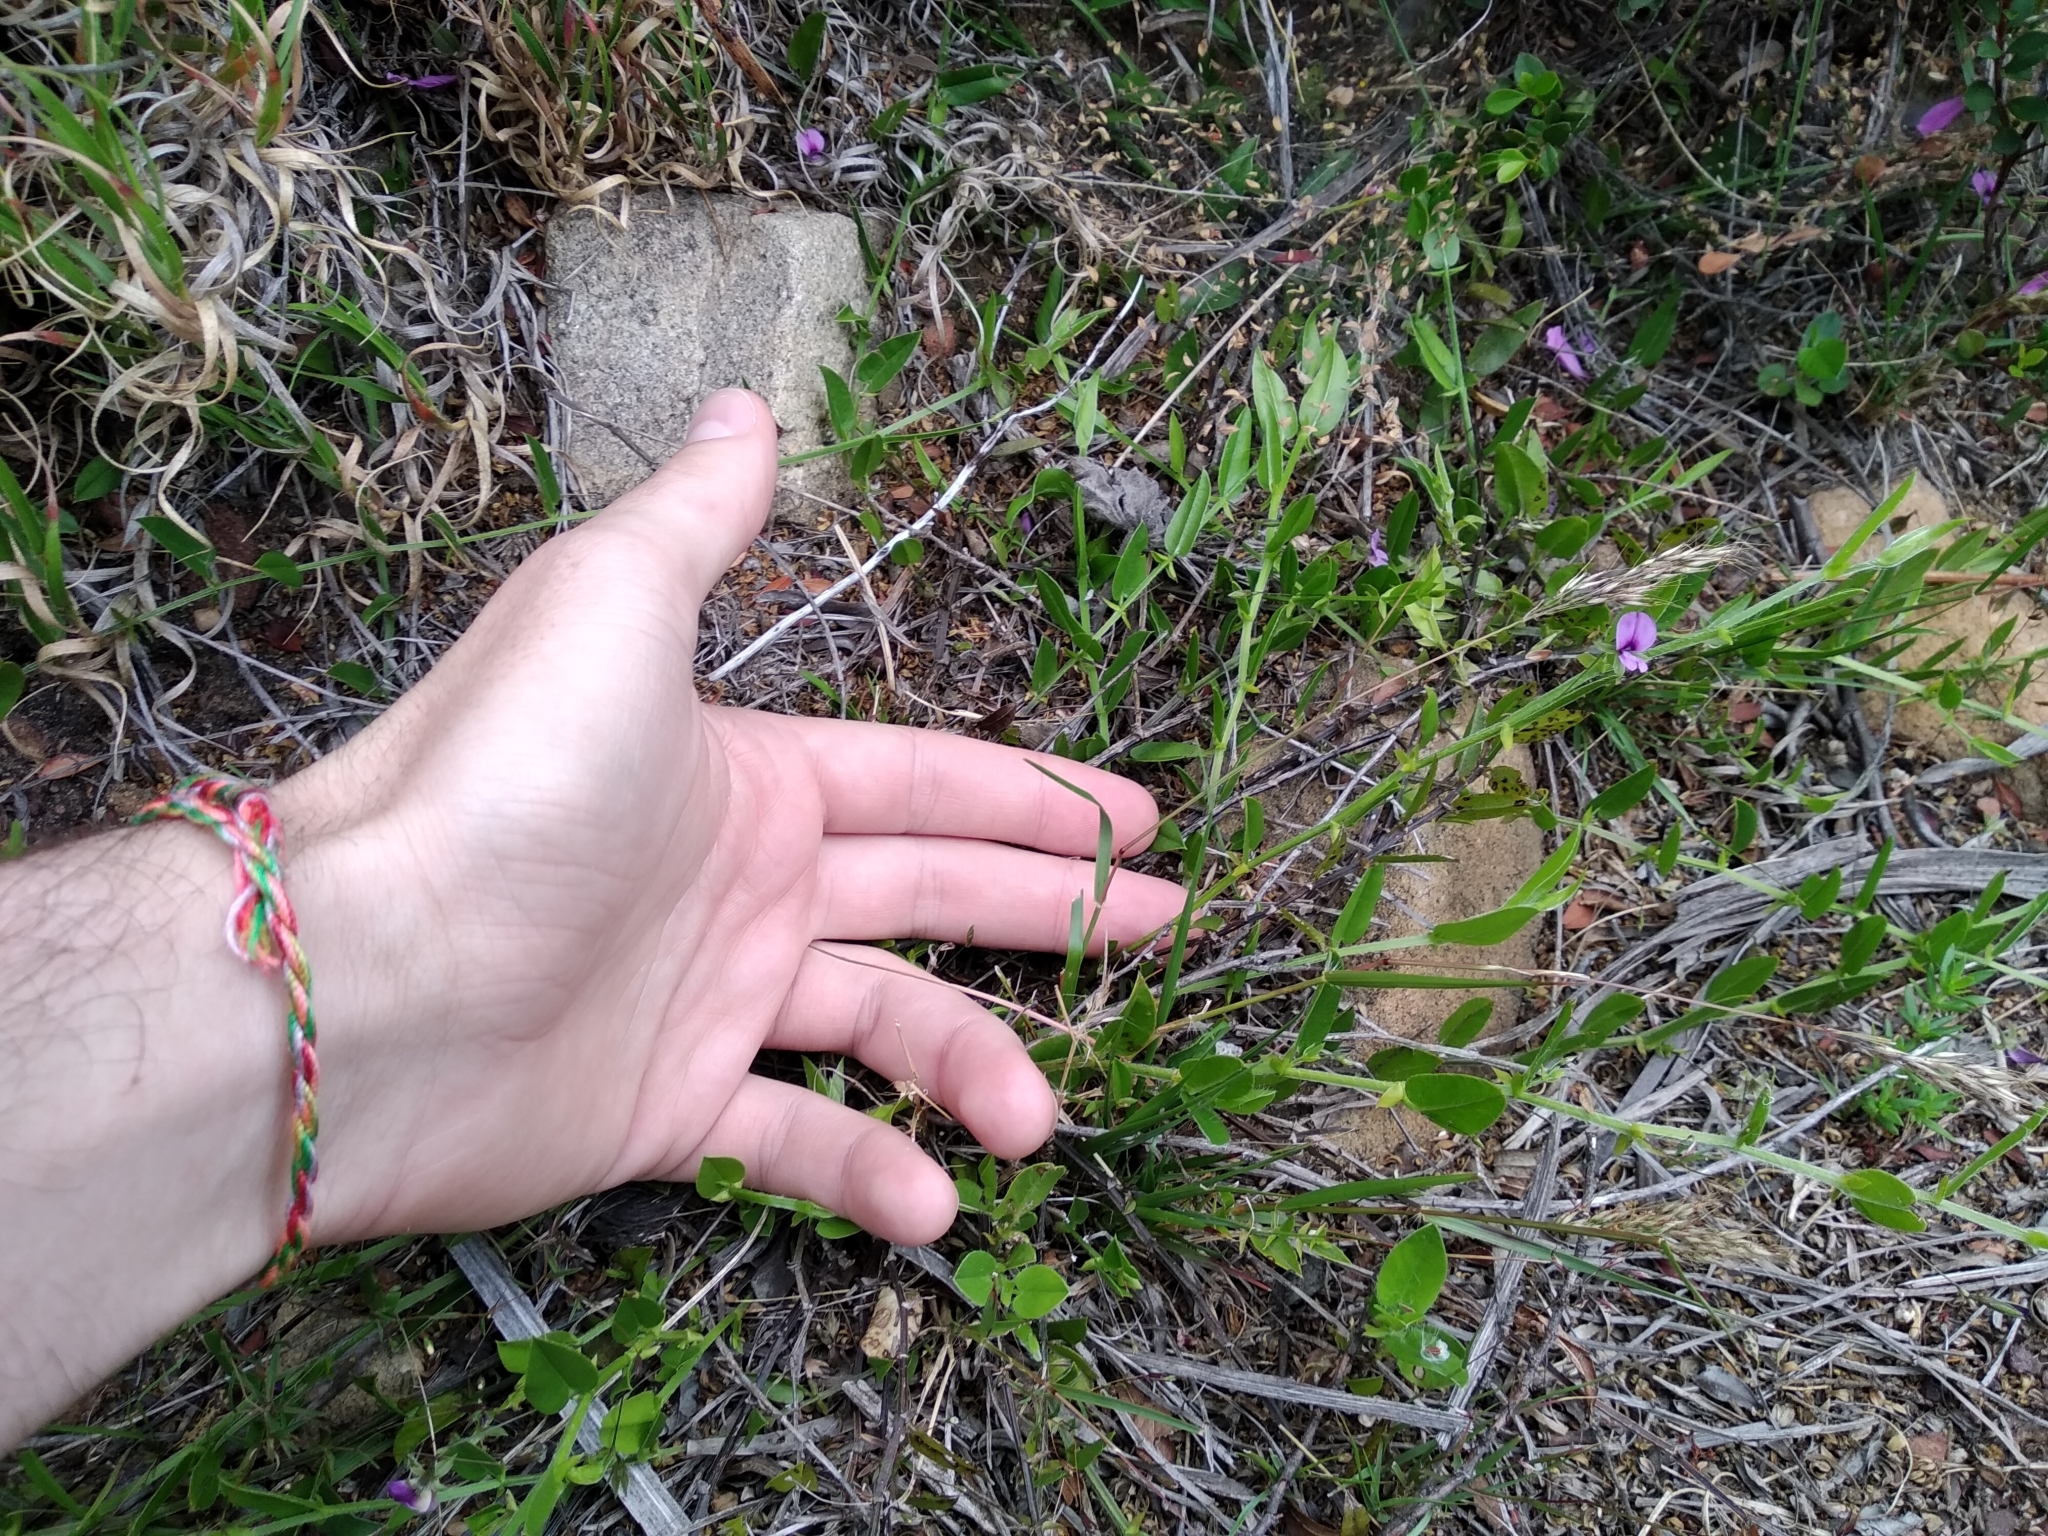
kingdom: Plantae
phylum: Tracheophyta
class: Magnoliopsida
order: Fabales
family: Fabaceae
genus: Psoralea
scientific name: Psoralea laxa
